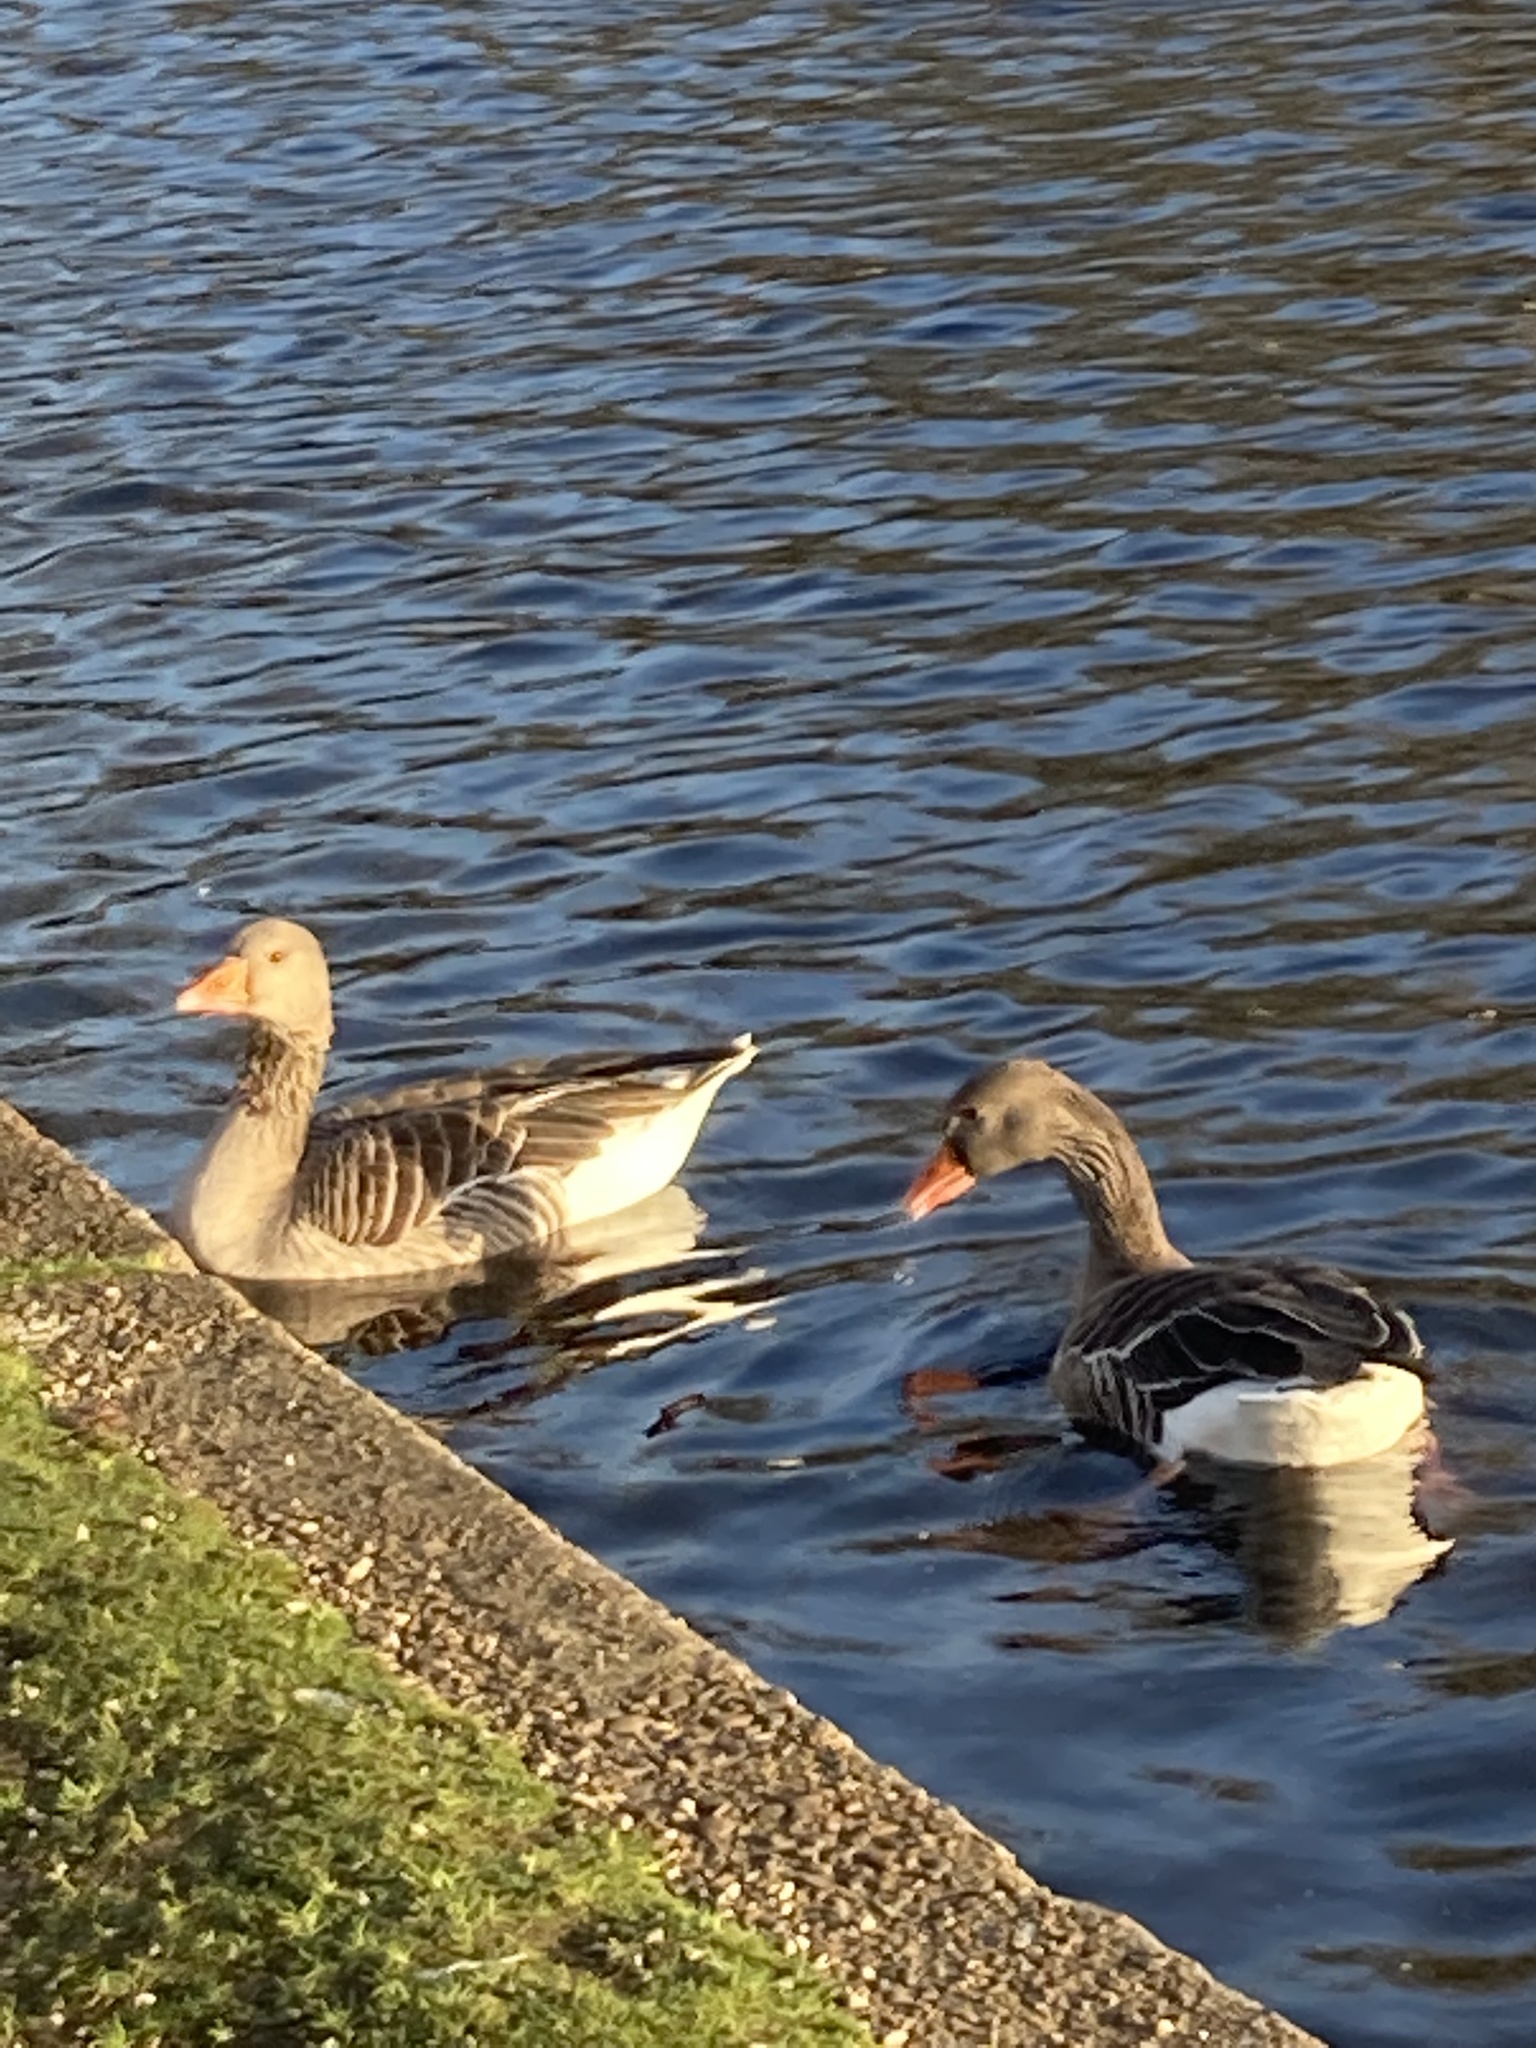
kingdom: Animalia
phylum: Chordata
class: Aves
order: Anseriformes
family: Anatidae
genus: Anser
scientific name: Anser anser
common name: Greylag goose
